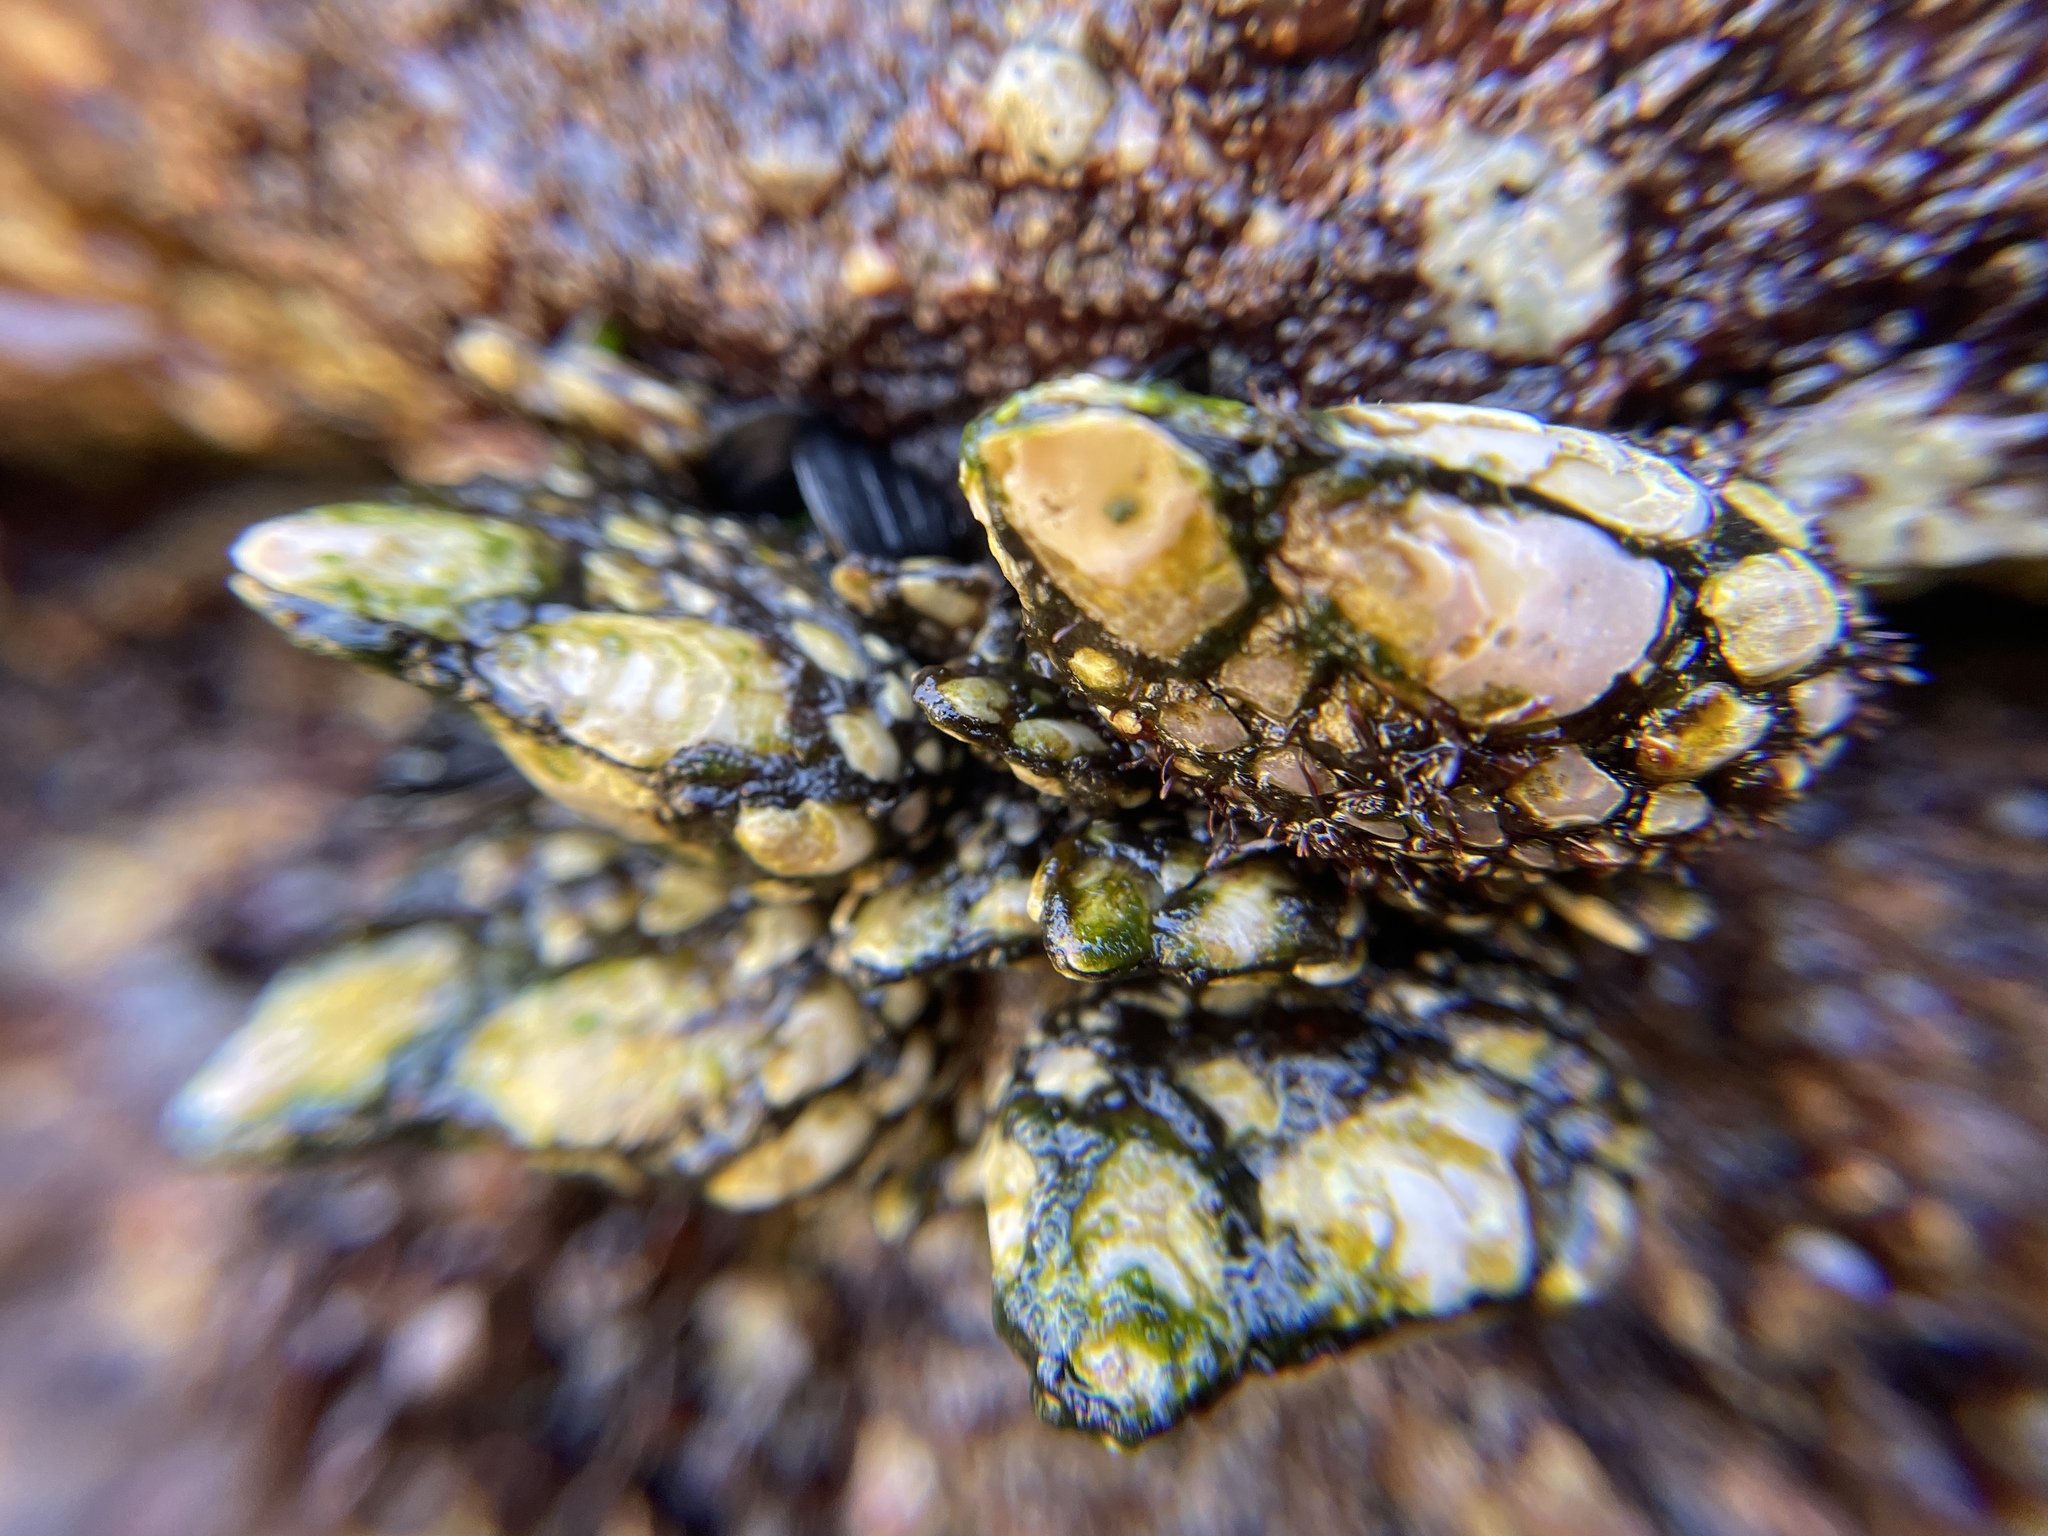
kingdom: Animalia
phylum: Arthropoda
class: Maxillopoda
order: Pedunculata
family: Pollicipedidae
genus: Pollicipes
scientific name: Pollicipes polymerus
